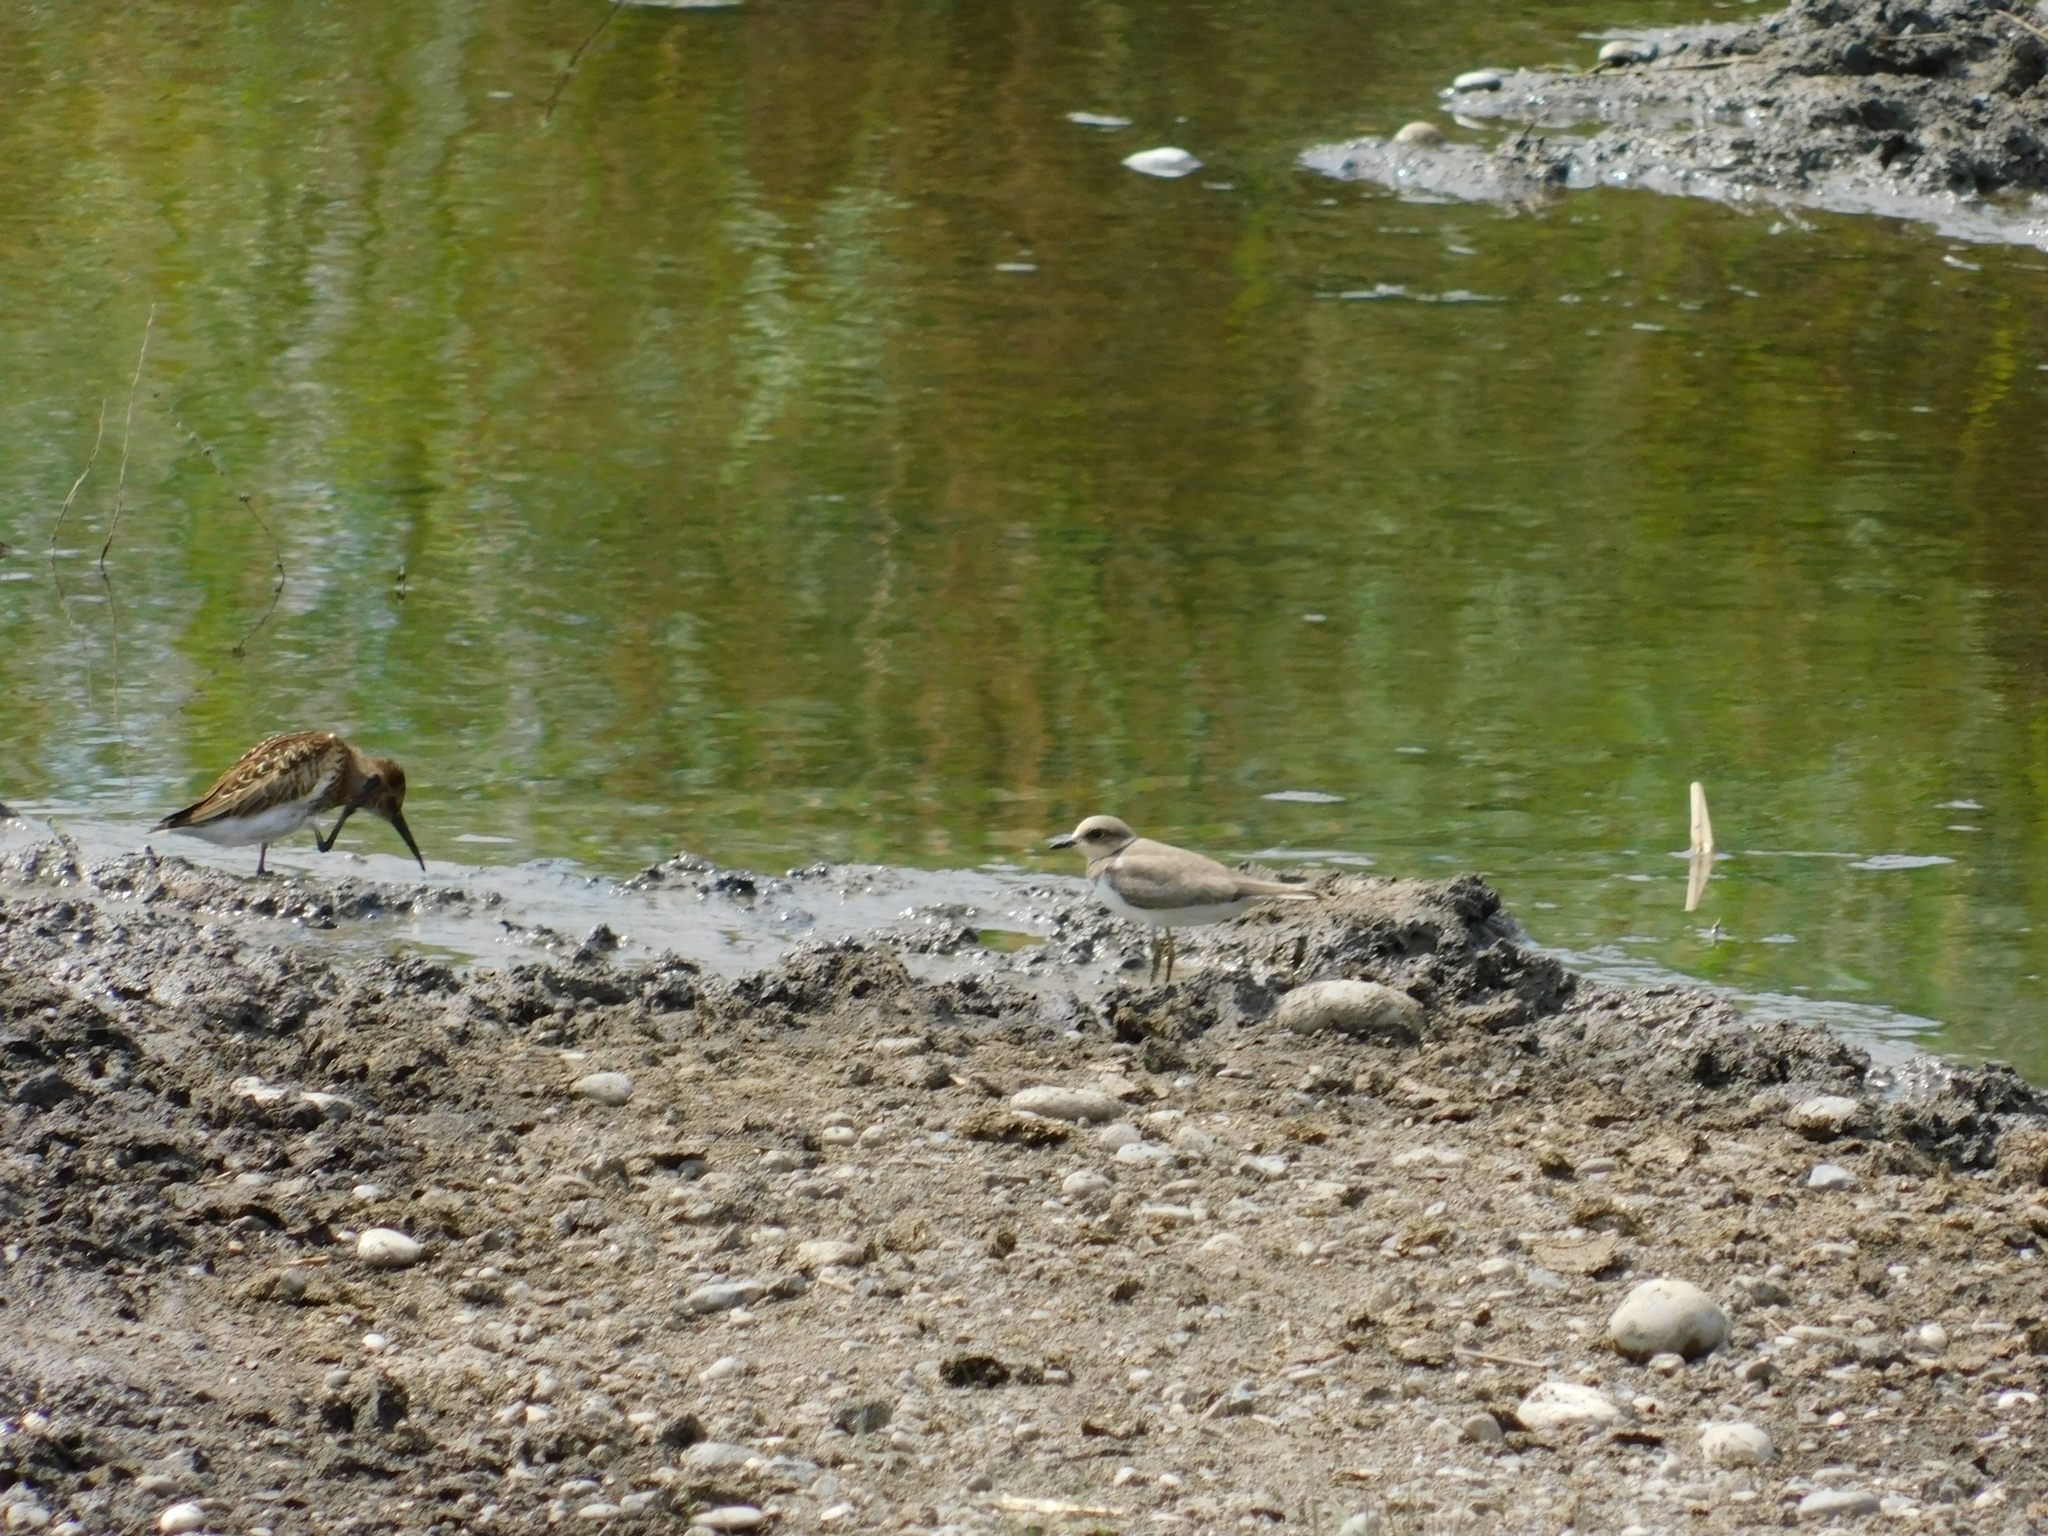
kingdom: Animalia
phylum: Chordata
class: Aves
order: Charadriiformes
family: Charadriidae
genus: Charadrius
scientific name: Charadrius dubius
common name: Little ringed plover
